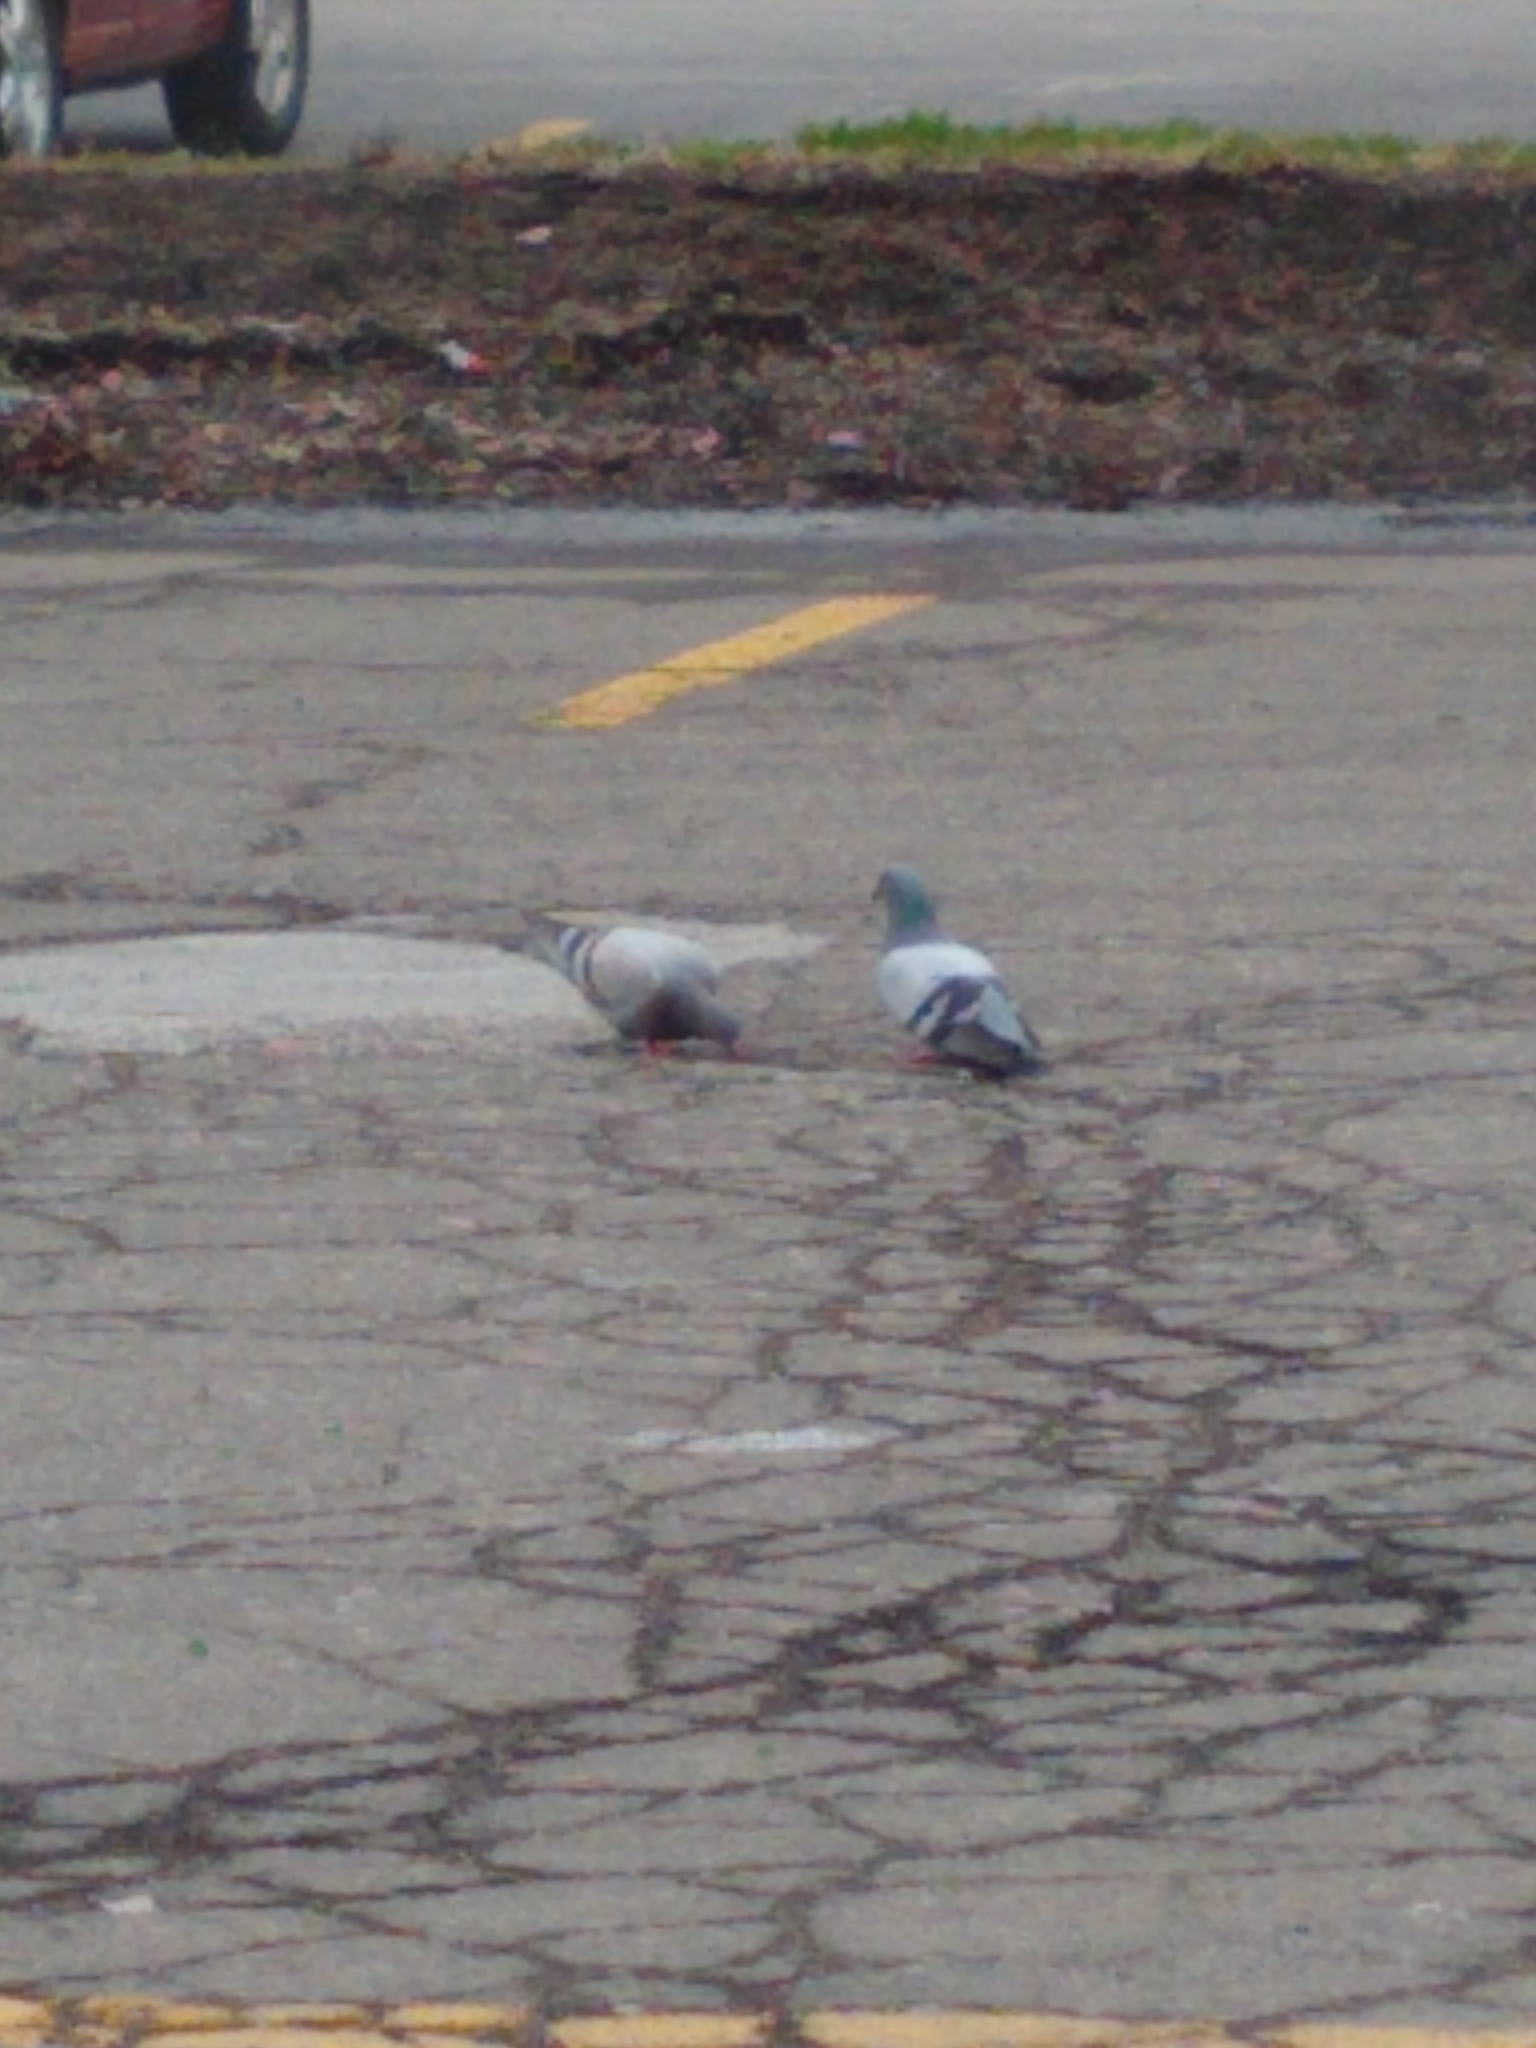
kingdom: Animalia
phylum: Chordata
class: Aves
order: Columbiformes
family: Columbidae
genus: Columba
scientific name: Columba livia
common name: Rock pigeon
